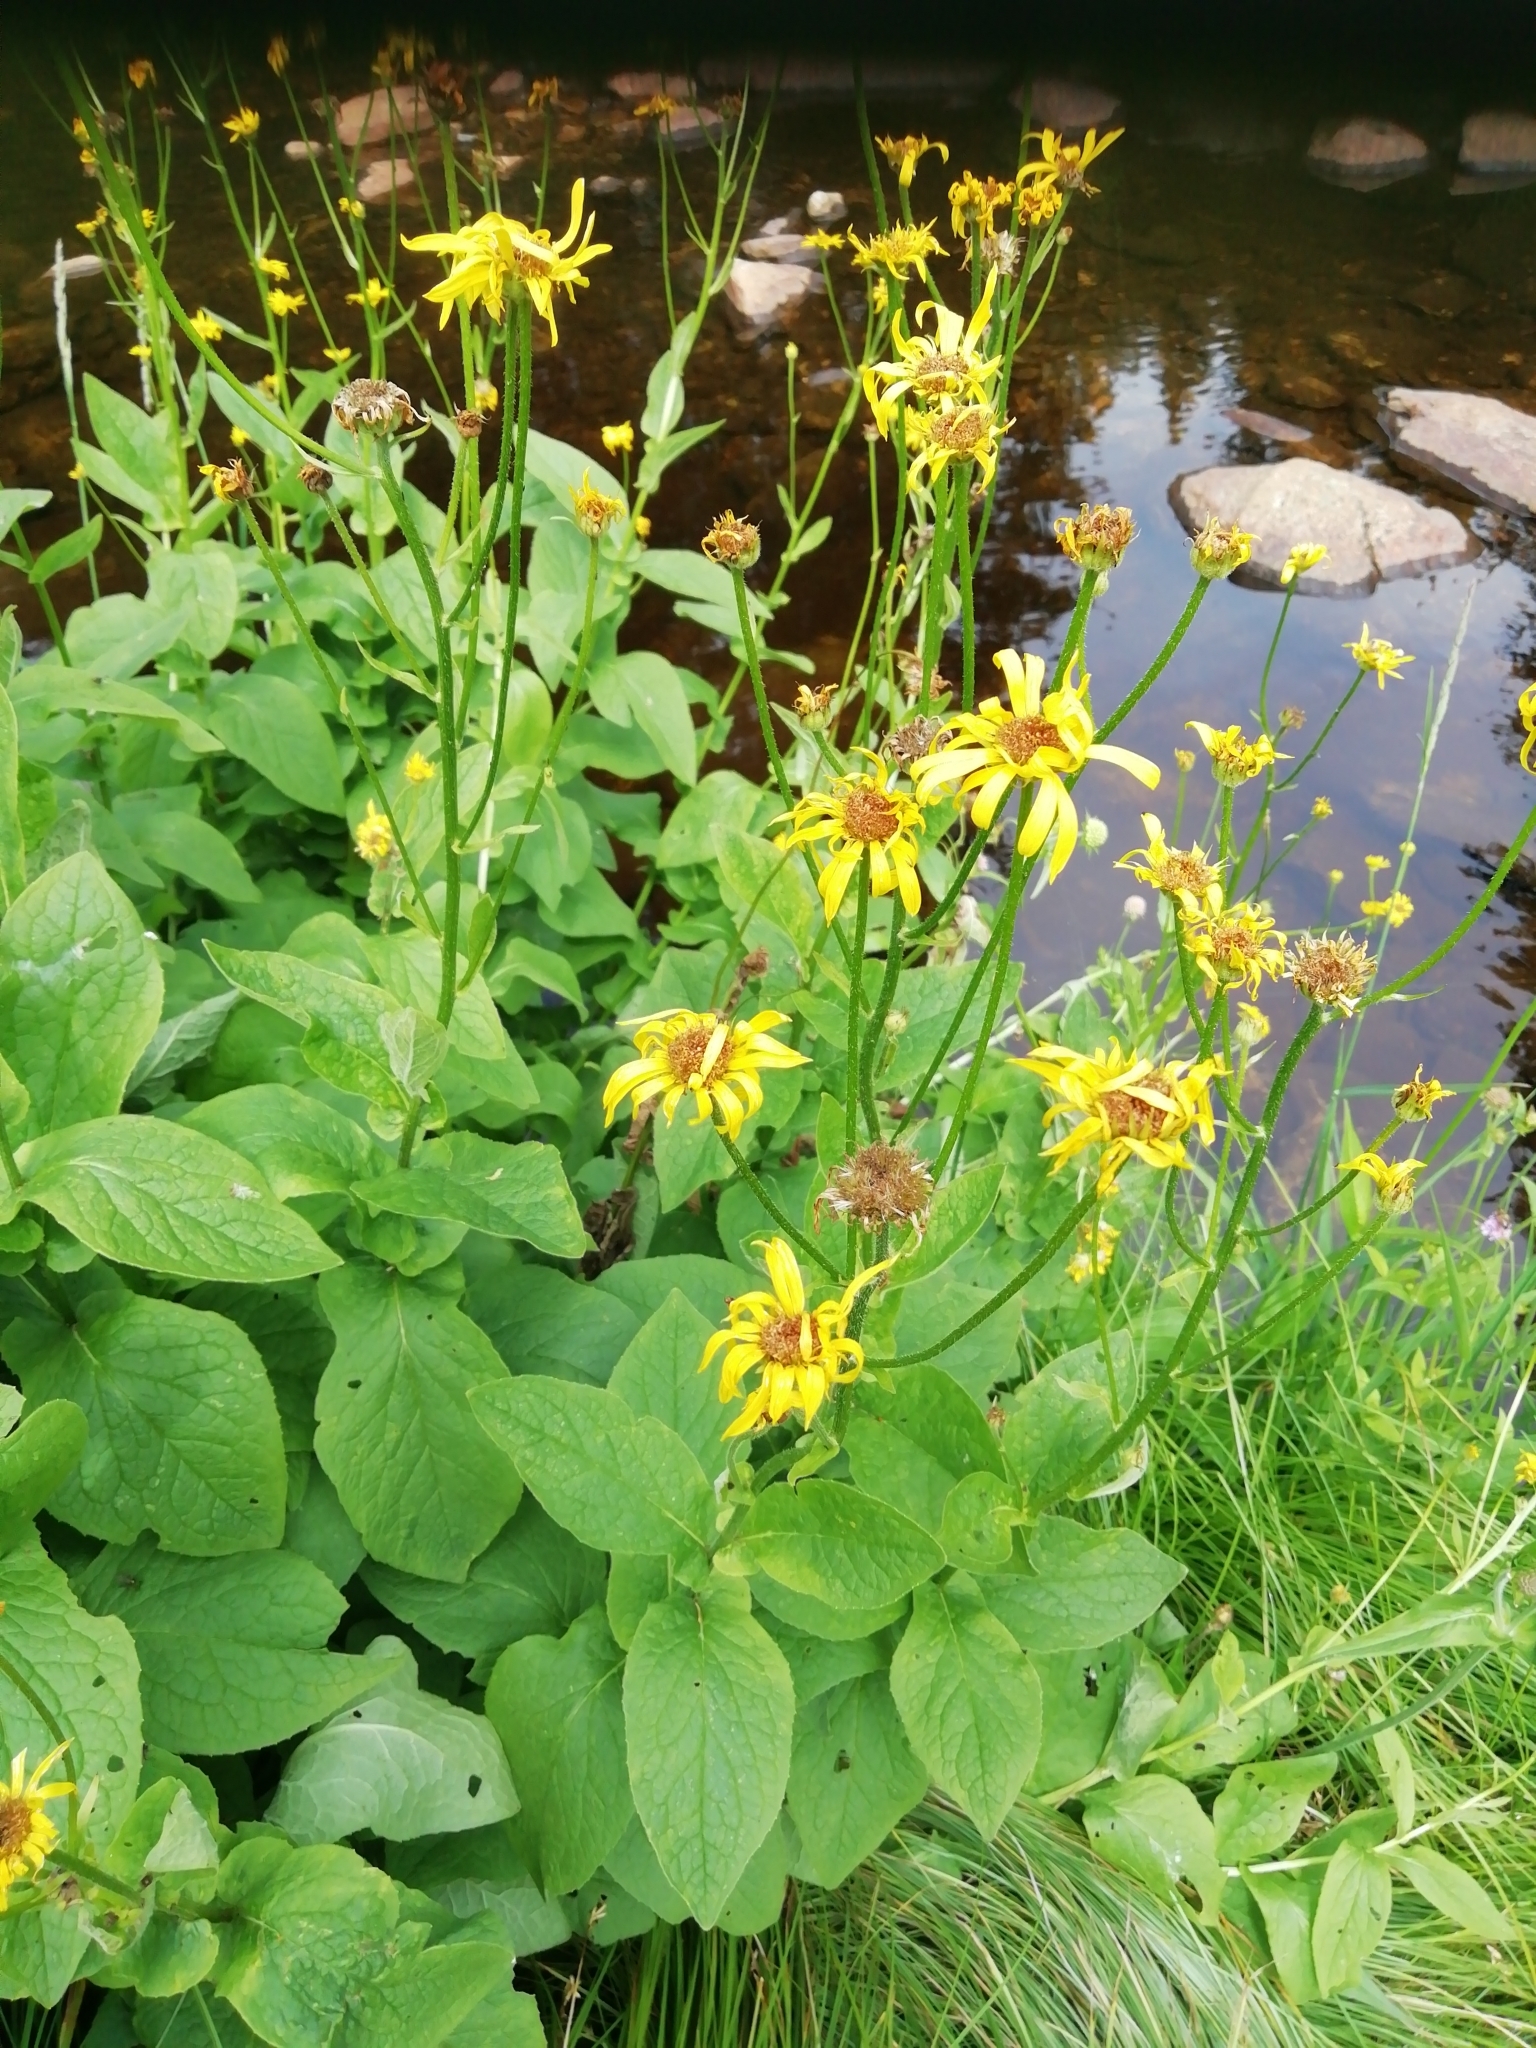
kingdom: Plantae
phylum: Tracheophyta
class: Magnoliopsida
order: Asterales
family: Asteraceae
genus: Doronicum
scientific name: Doronicum austriacum
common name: Austrian leopard's-bane
